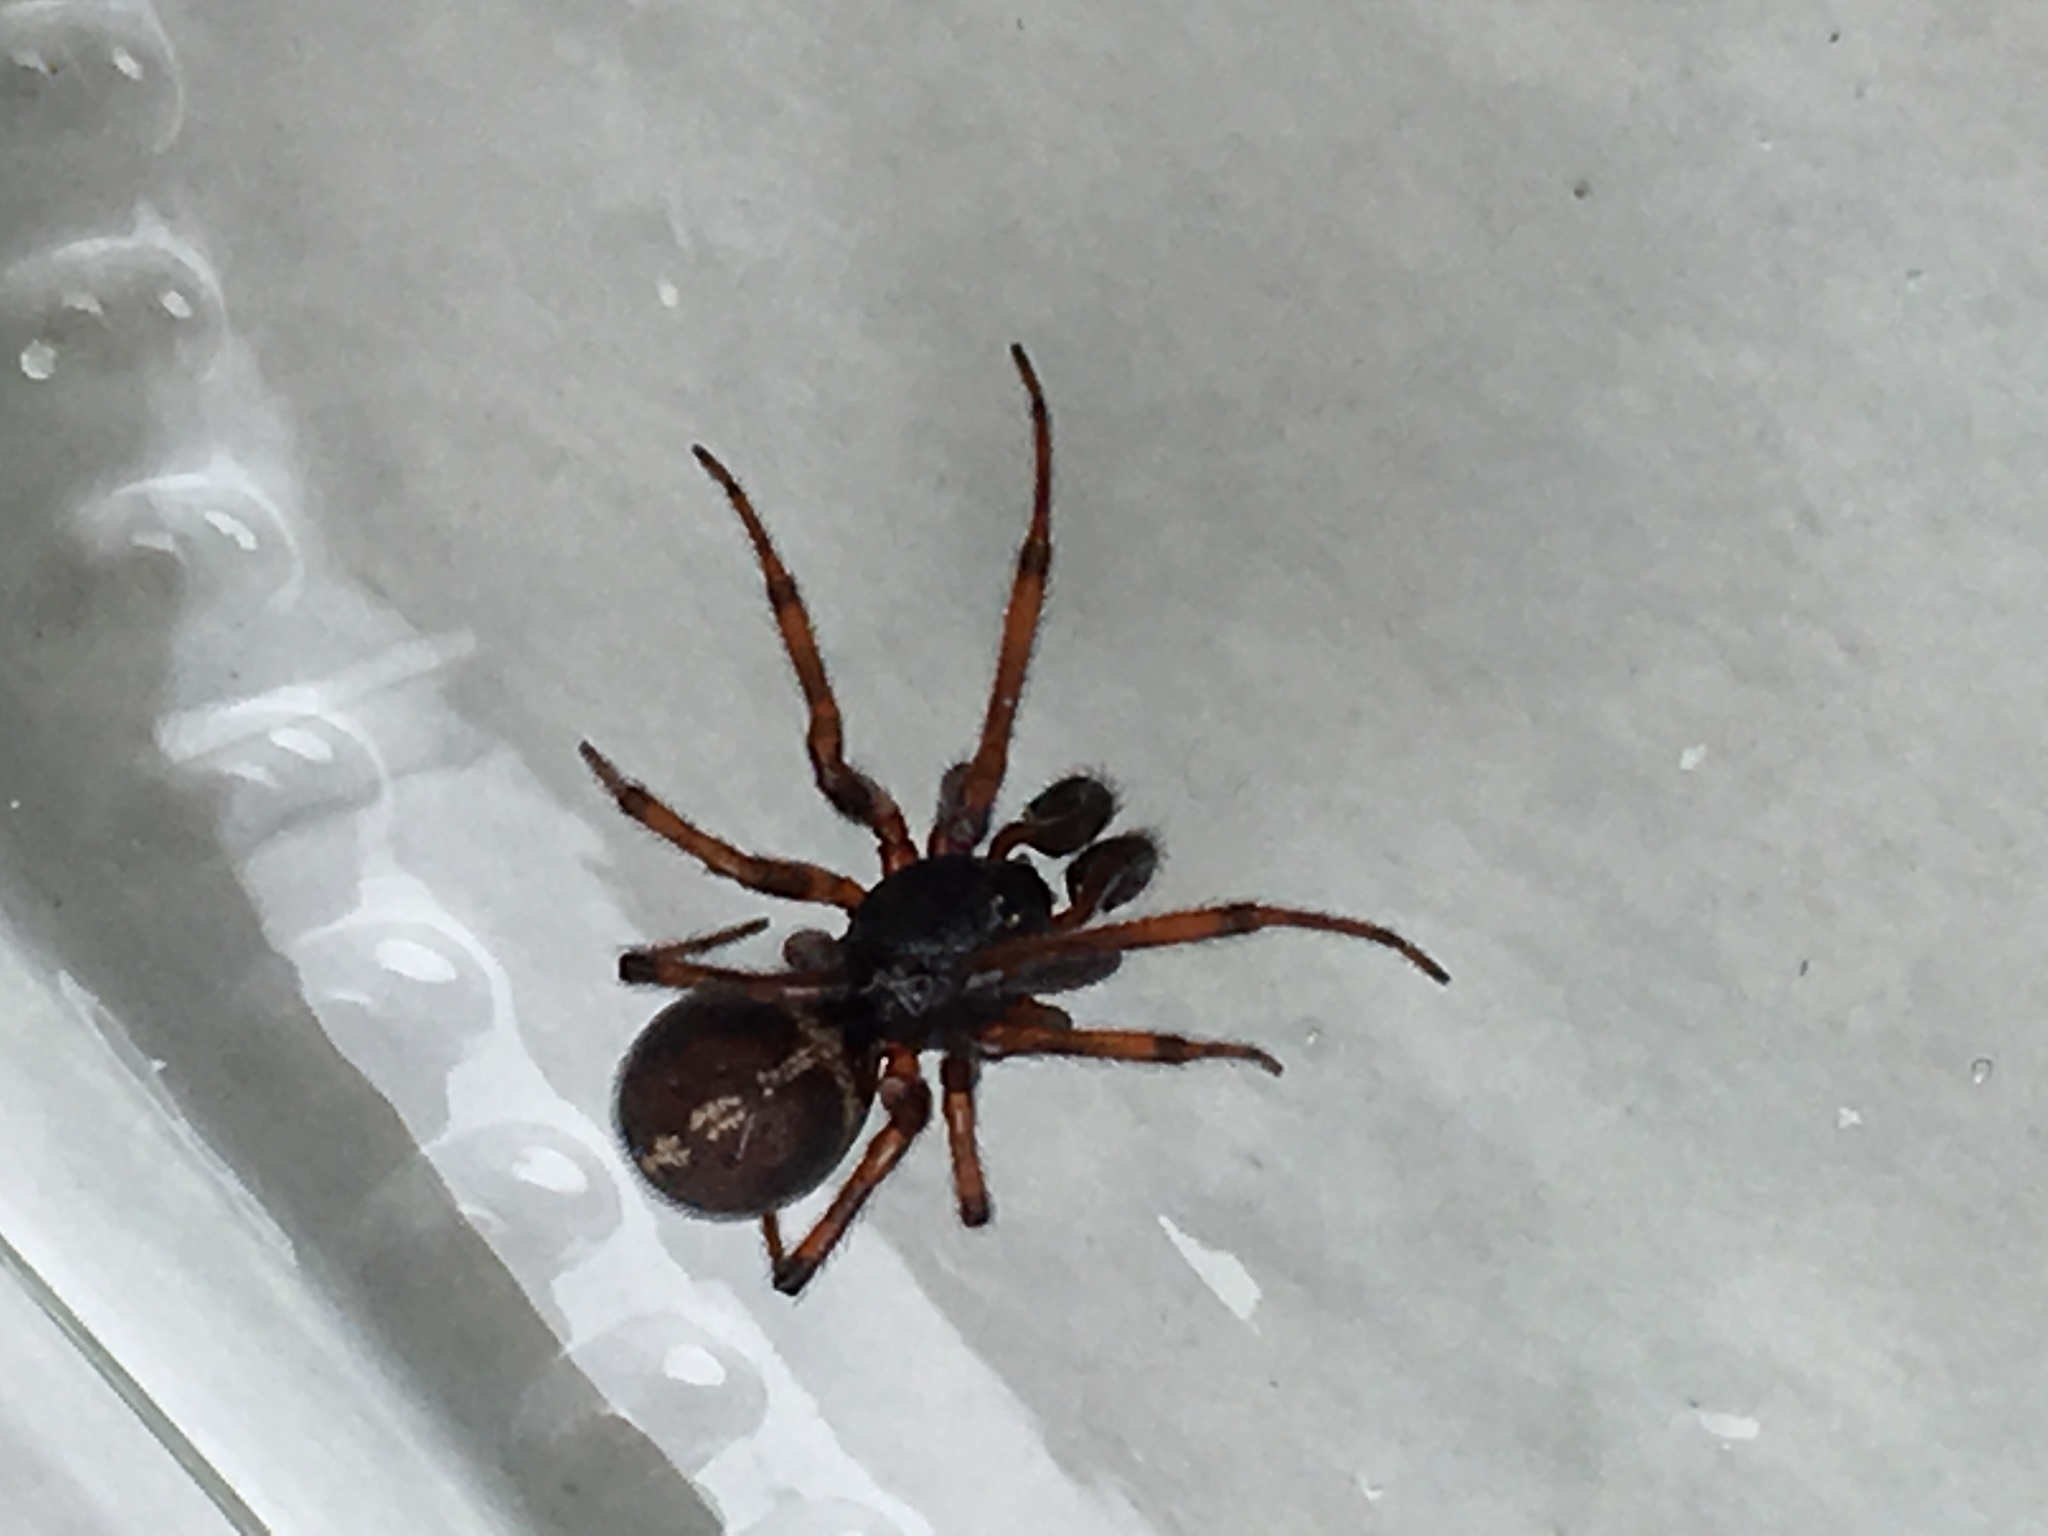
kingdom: Animalia
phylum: Arthropoda
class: Arachnida
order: Araneae
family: Theridiidae
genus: Steatoda
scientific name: Steatoda bipunctata
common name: False widow
